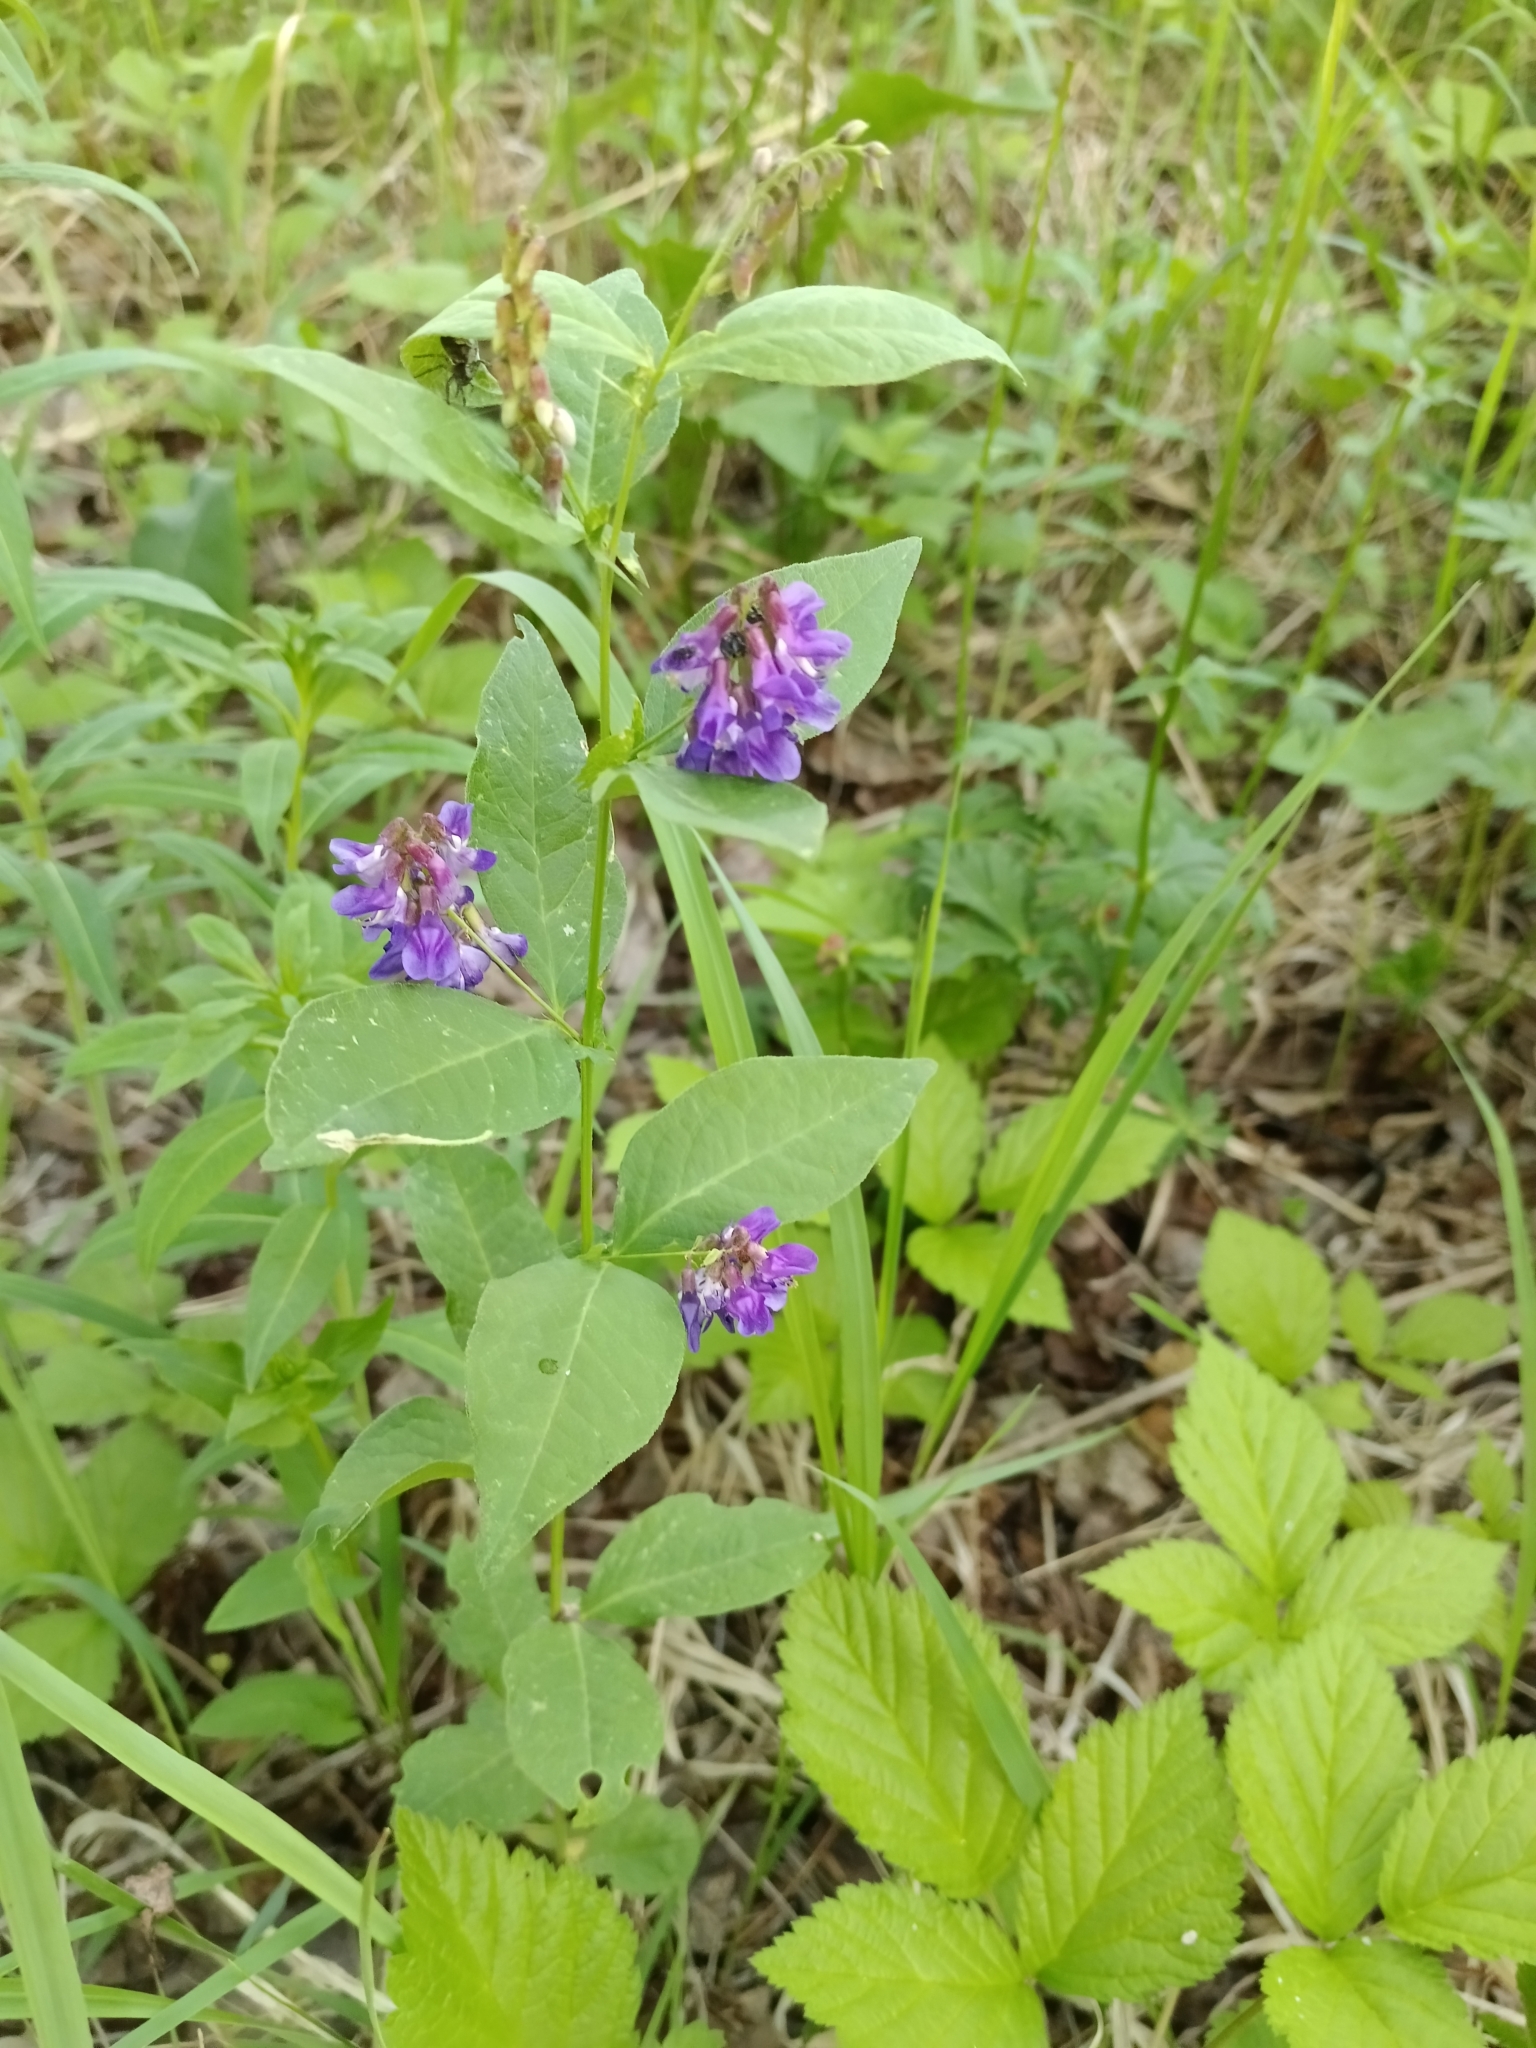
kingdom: Plantae
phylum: Tracheophyta
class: Magnoliopsida
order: Fabales
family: Fabaceae
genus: Vicia
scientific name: Vicia unijuga
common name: Two-leaf vetch
